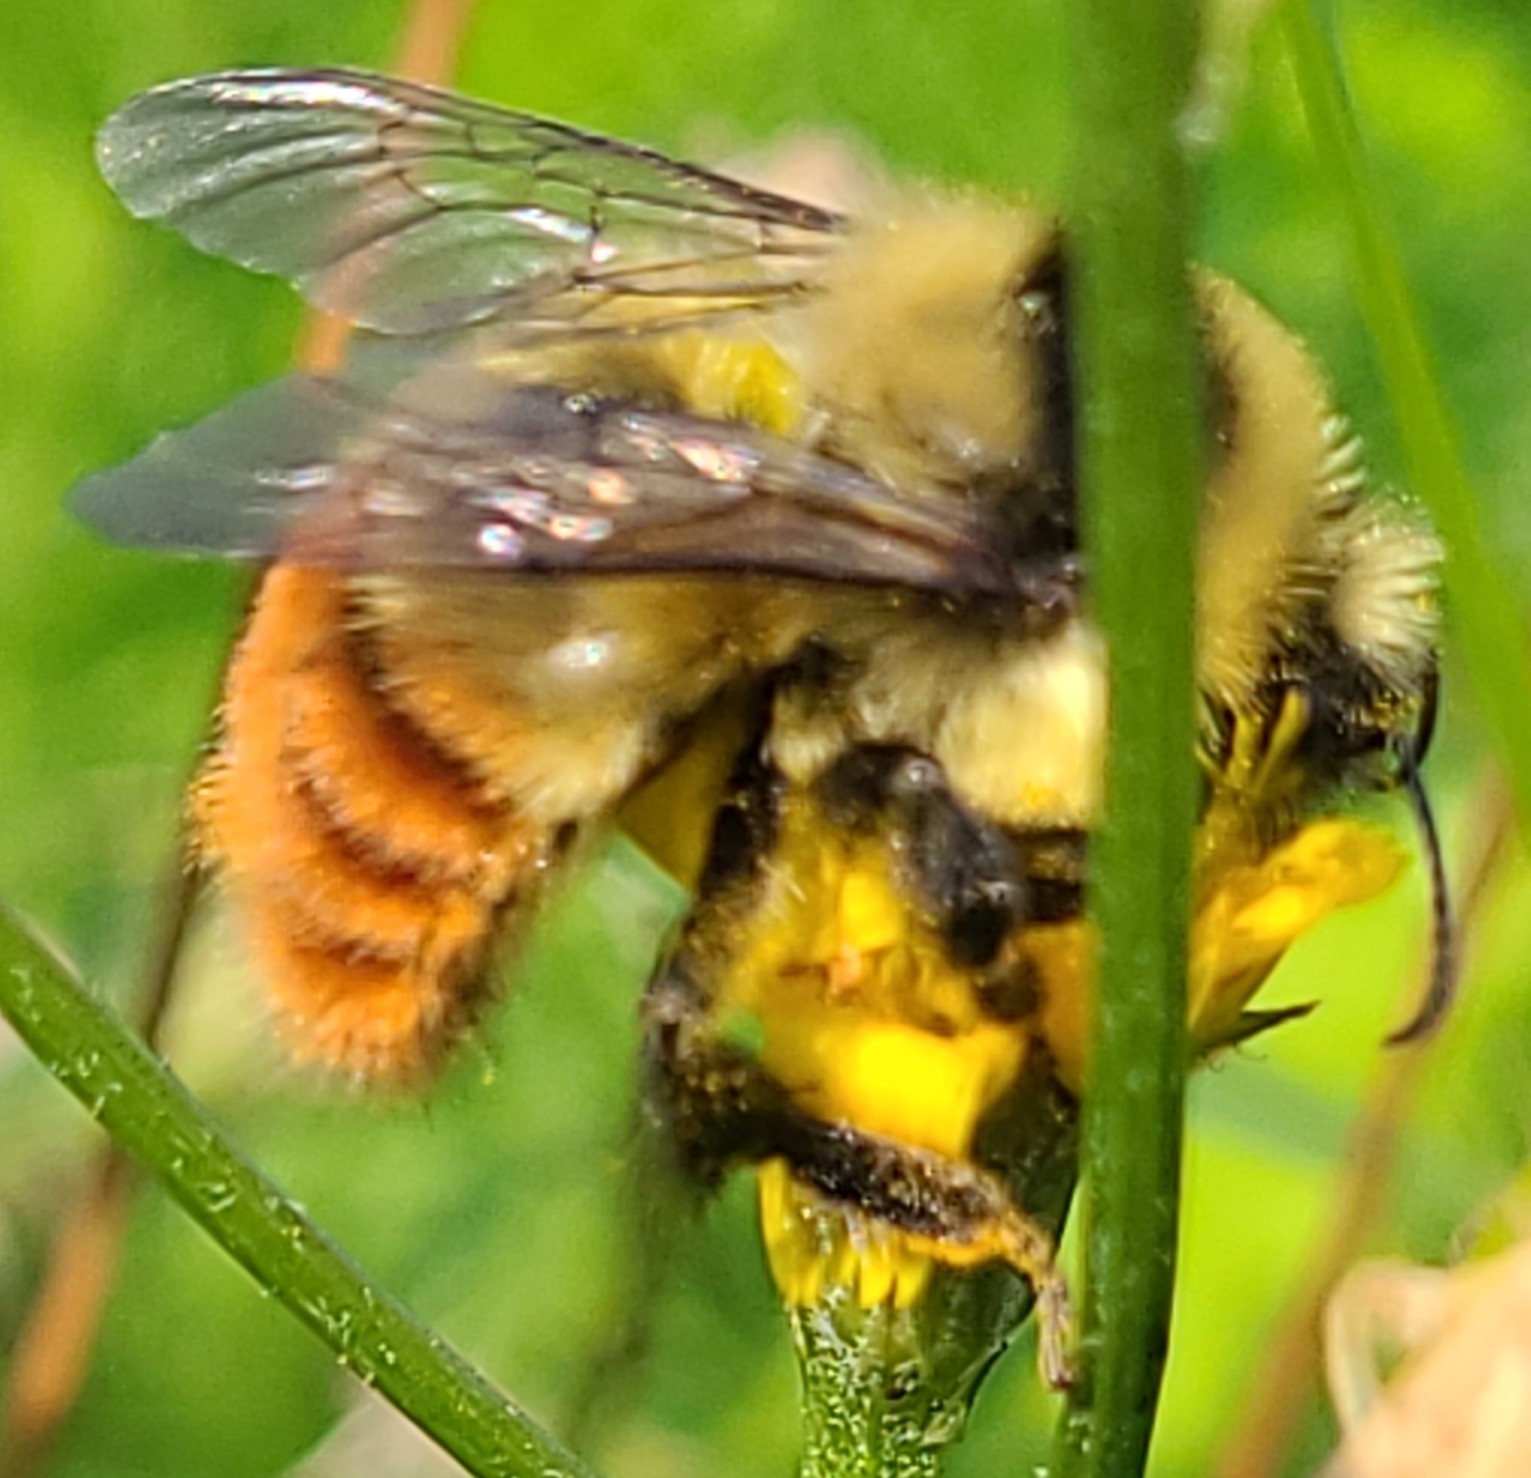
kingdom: Animalia
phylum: Arthropoda
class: Insecta
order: Hymenoptera
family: Apidae
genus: Bombus
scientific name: Bombus rufocinctus
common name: Red-belted bumble bee
